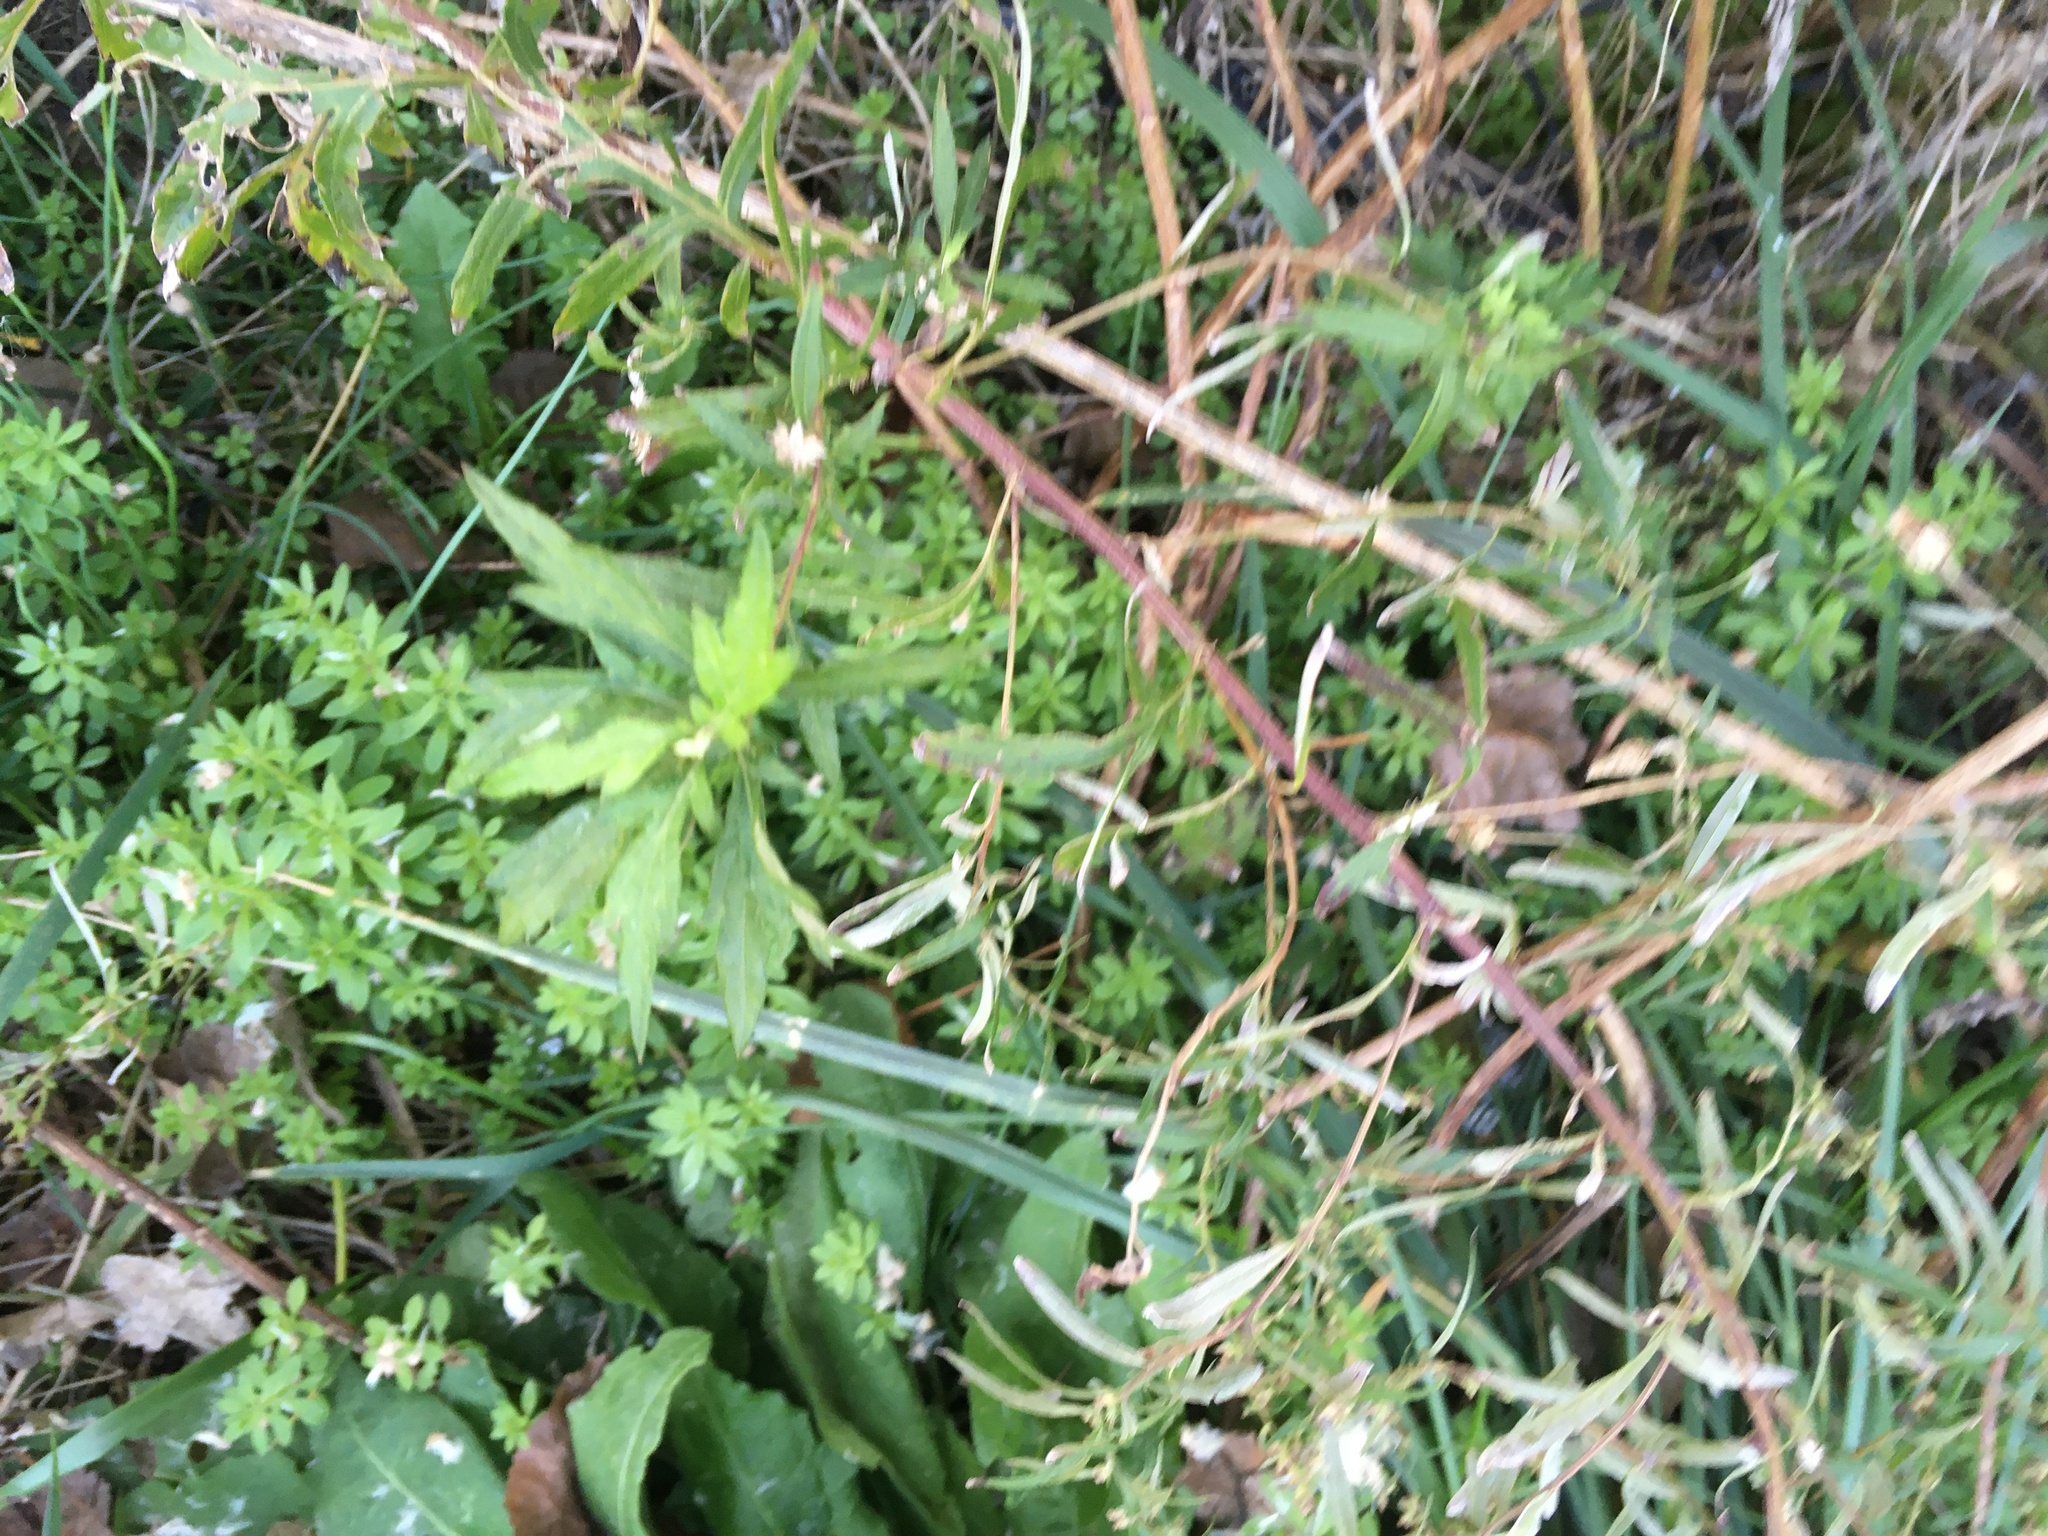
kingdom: Plantae
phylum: Tracheophyta
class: Magnoliopsida
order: Asterales
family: Asteraceae
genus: Artemisia
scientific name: Artemisia vulgaris
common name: Mugwort
